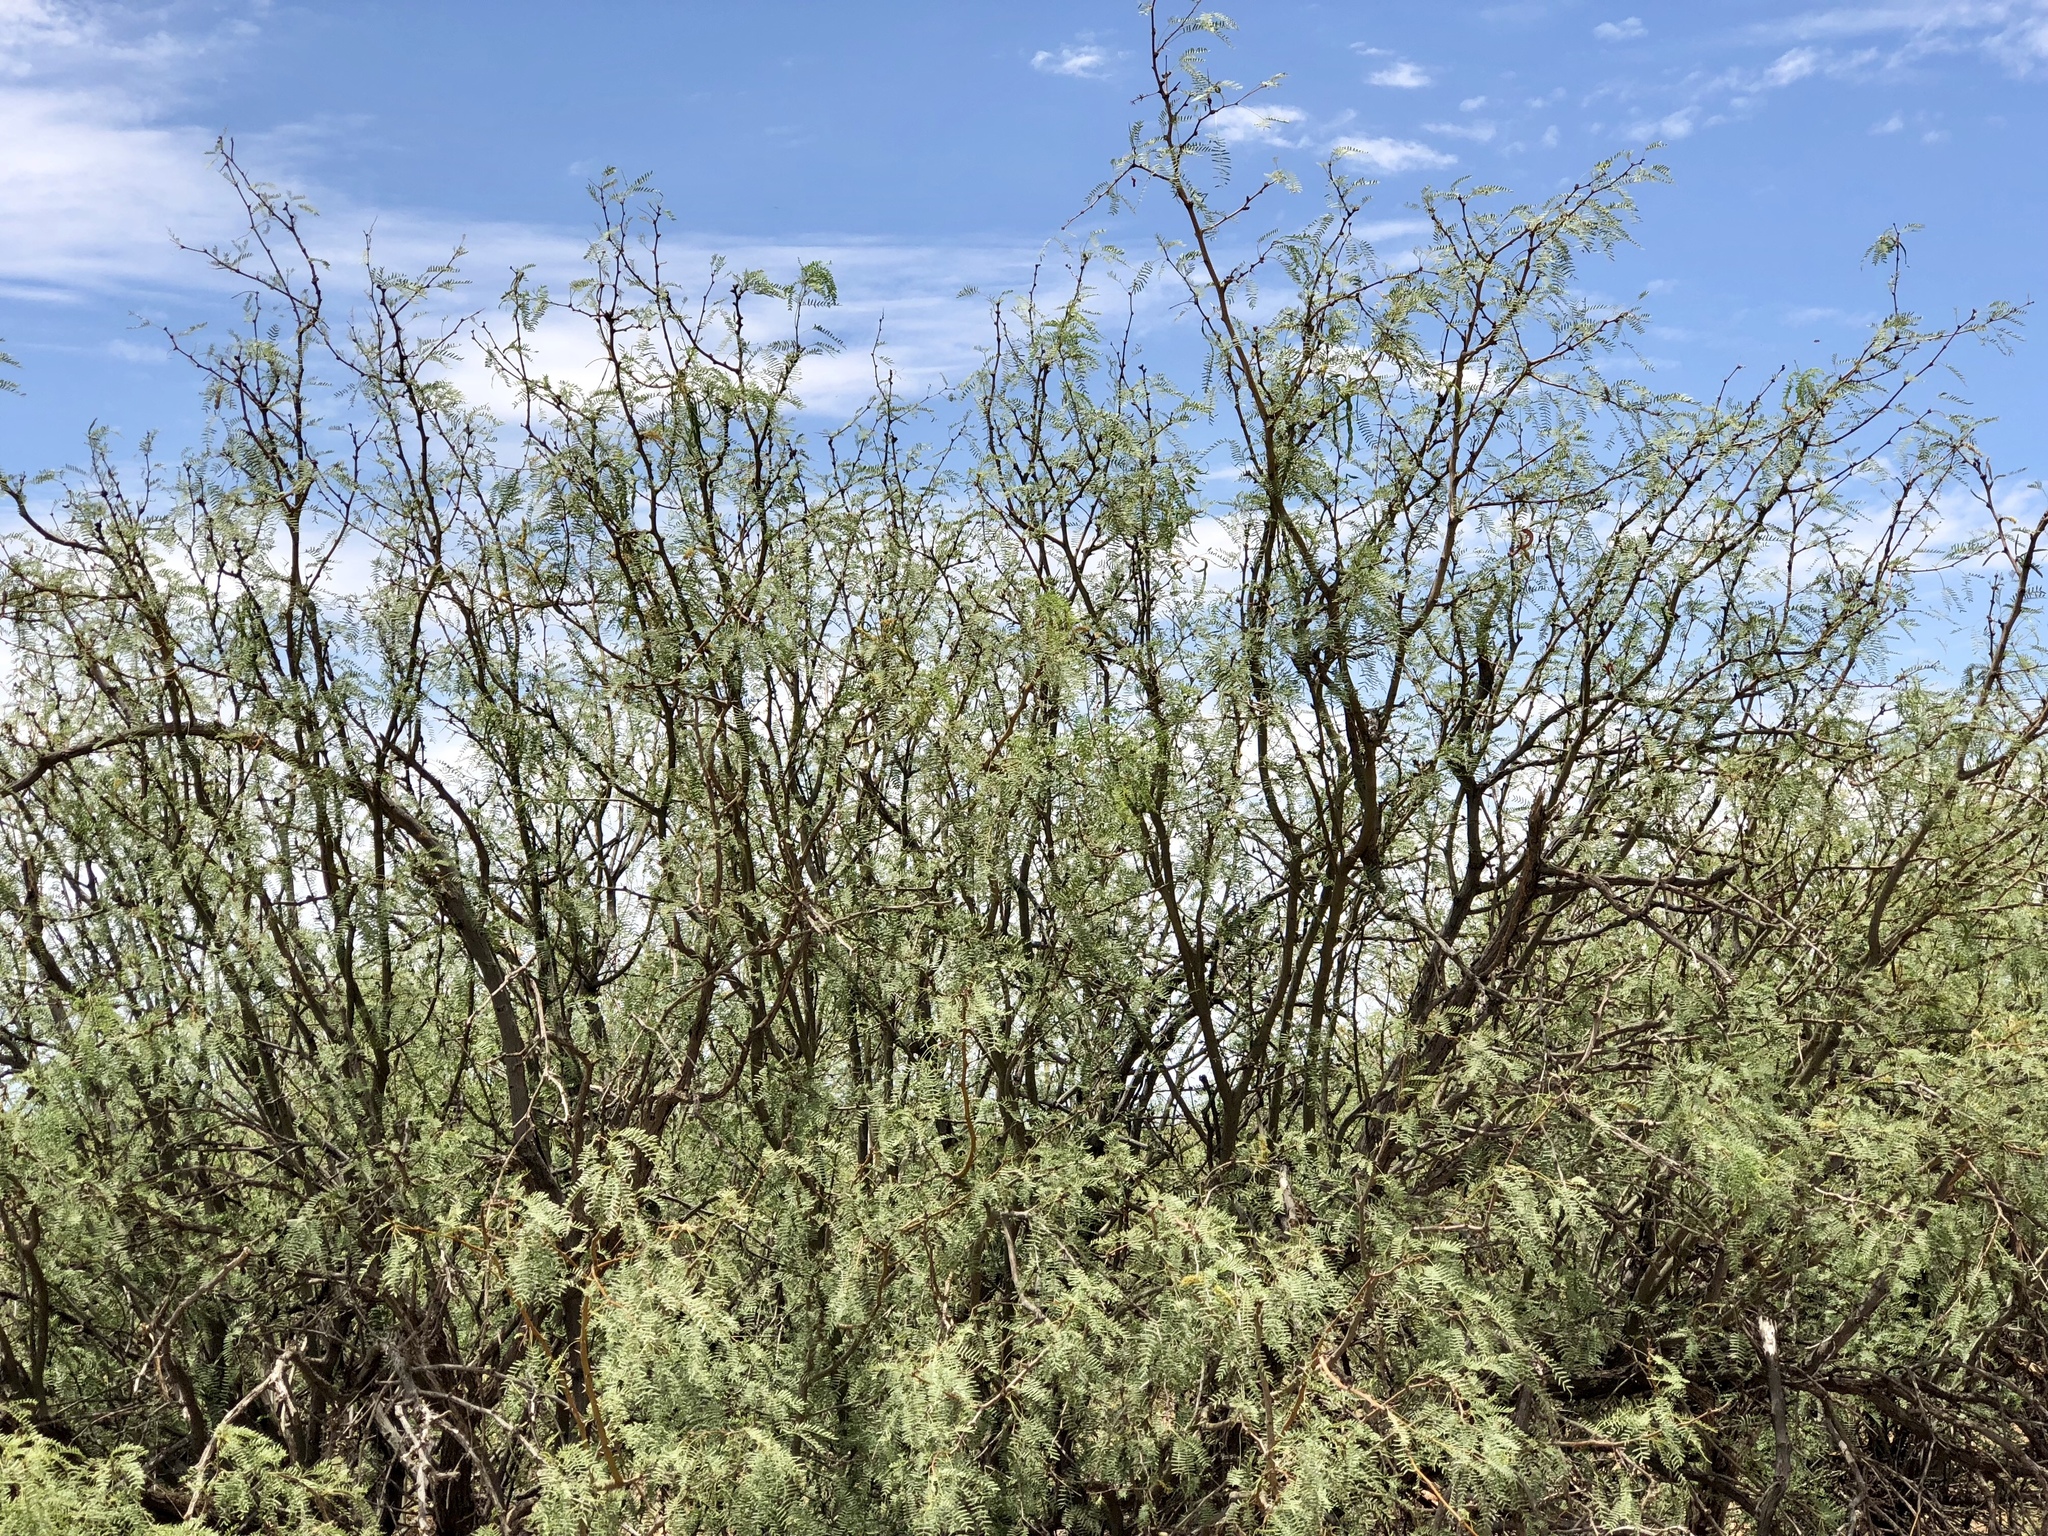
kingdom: Plantae
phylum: Tracheophyta
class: Magnoliopsida
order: Fabales
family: Fabaceae
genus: Prosopis
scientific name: Prosopis glandulosa
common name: Honey mesquite
